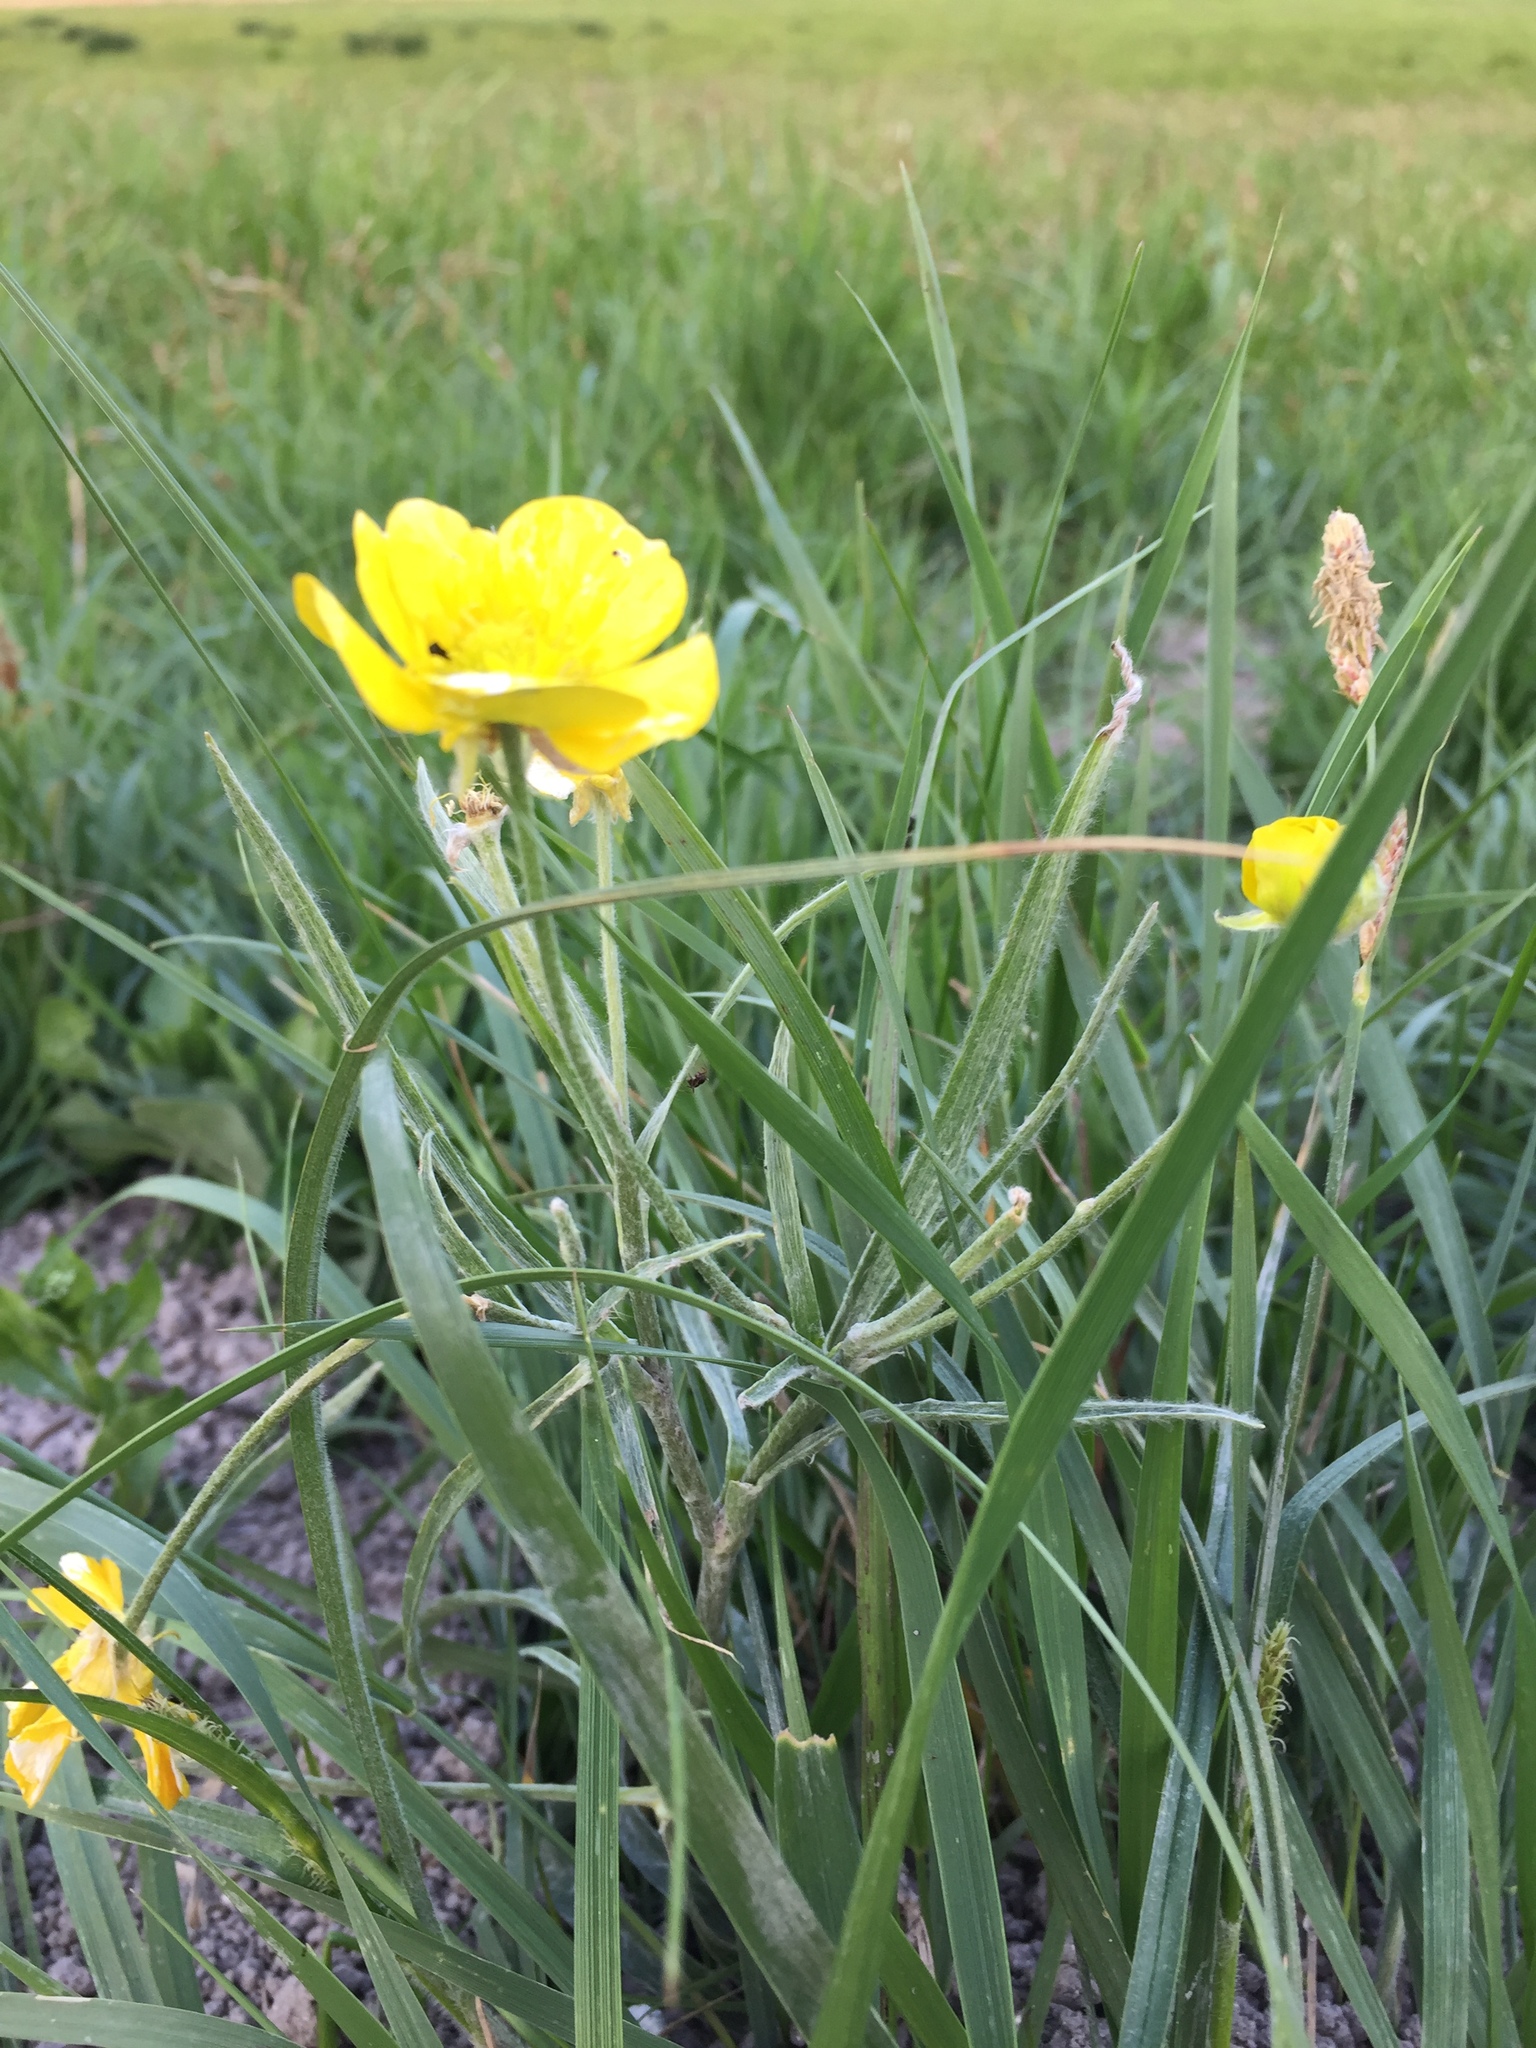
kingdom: Plantae
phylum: Tracheophyta
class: Magnoliopsida
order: Ranunculales
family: Ranunculaceae
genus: Ranunculus
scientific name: Ranunculus illyricus
